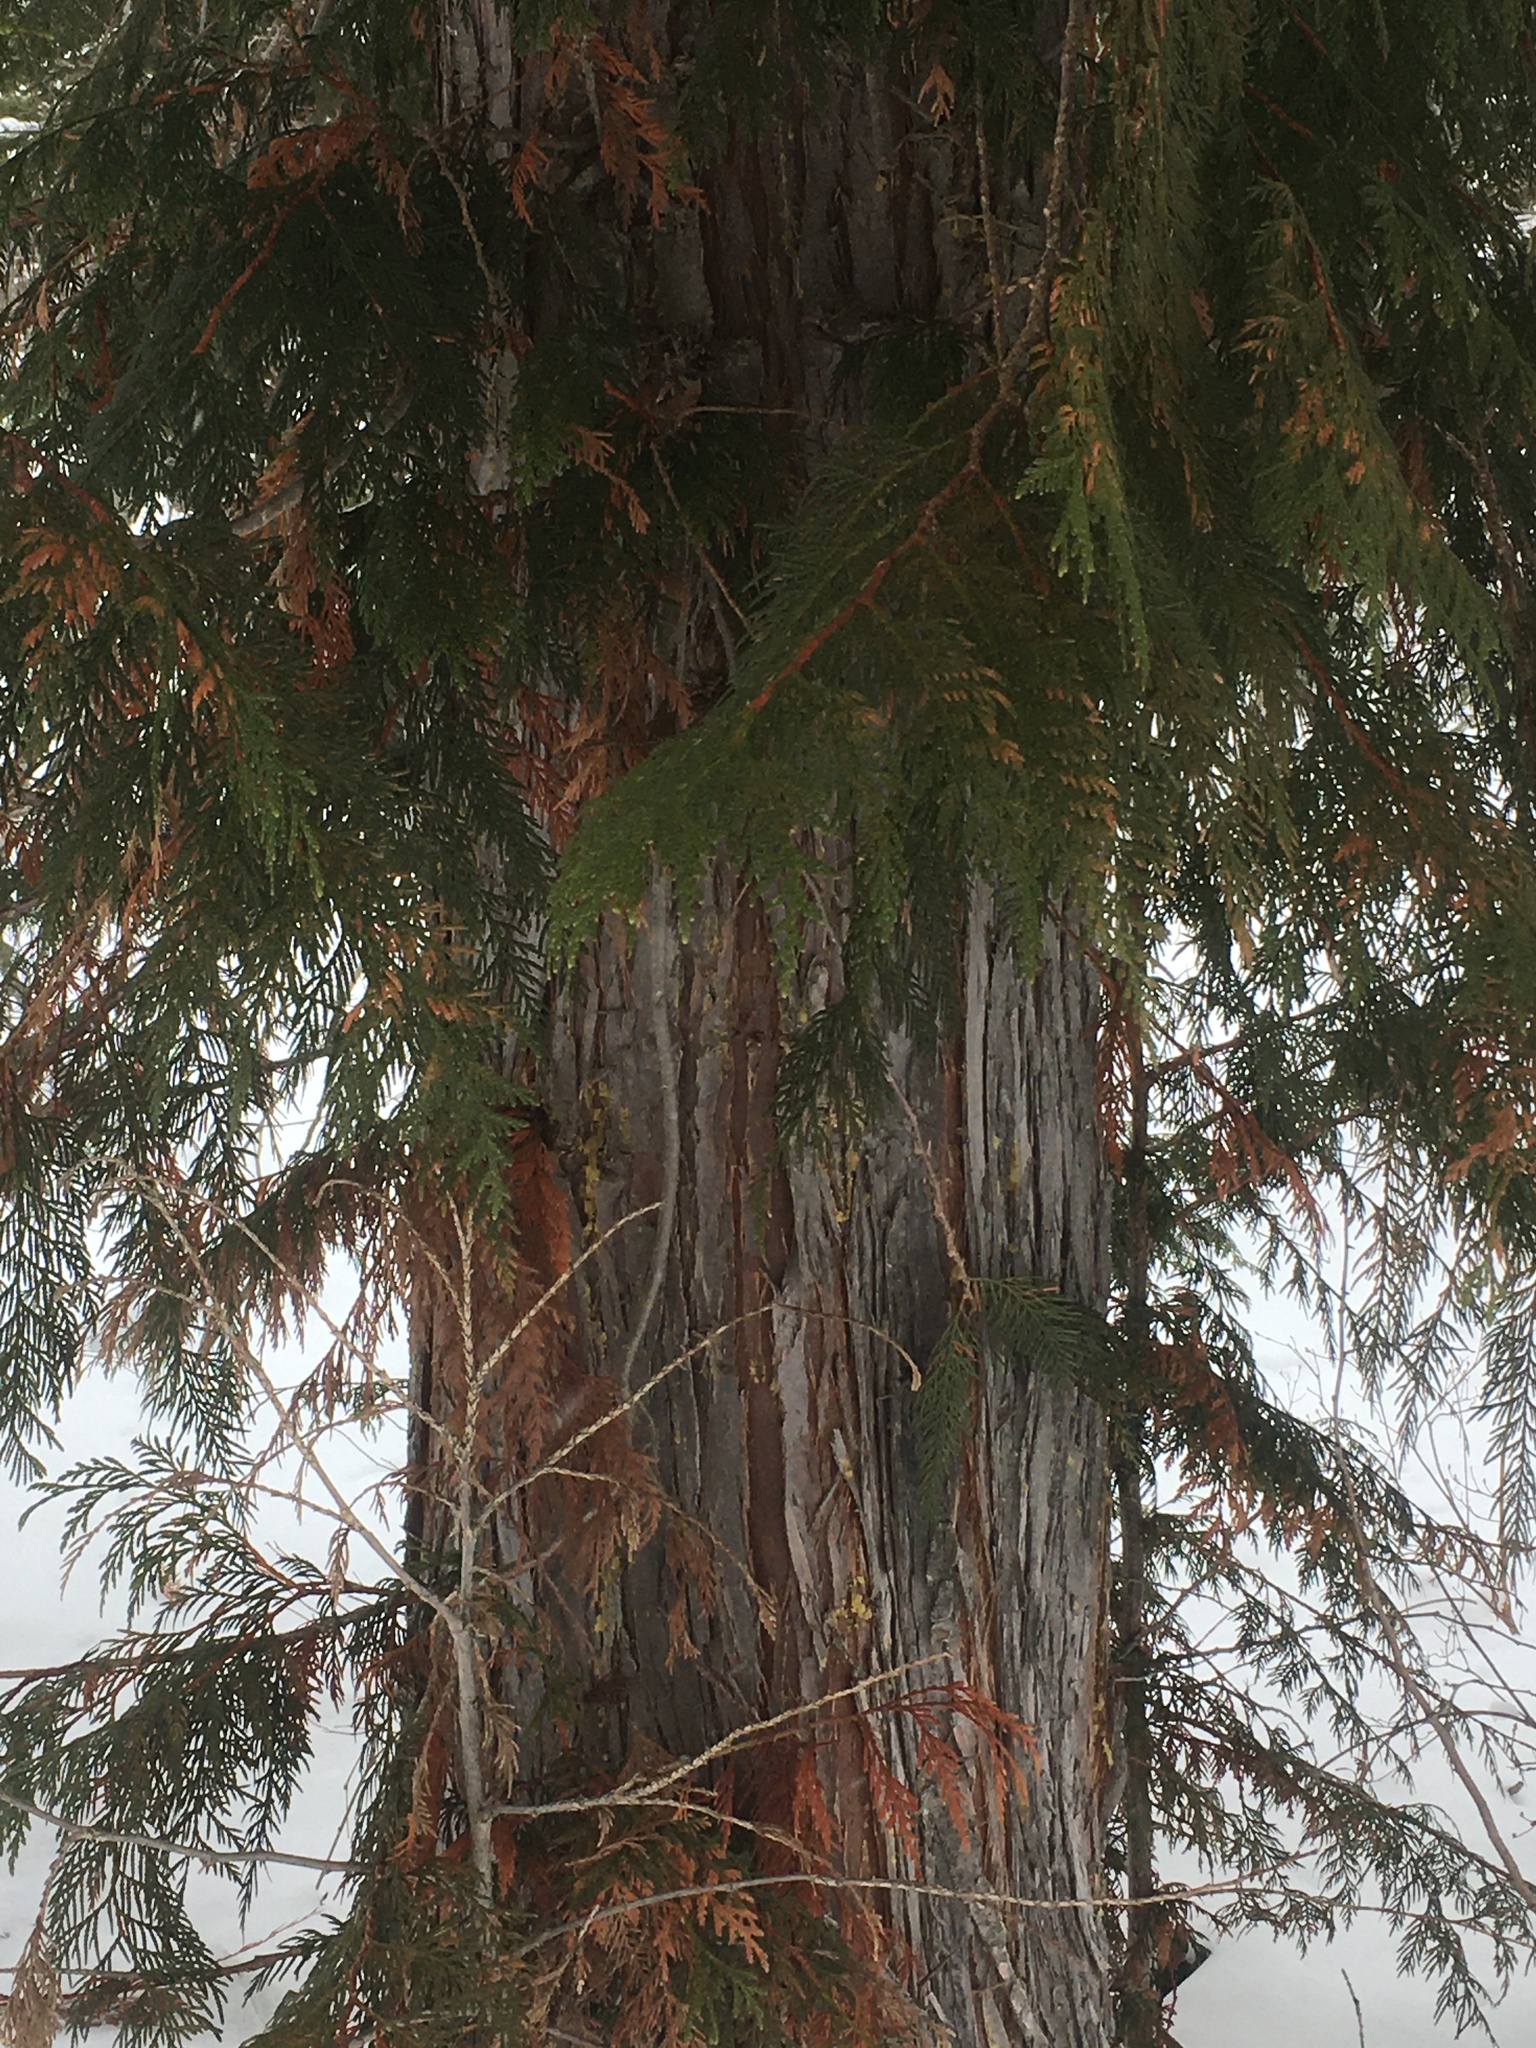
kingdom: Plantae
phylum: Tracheophyta
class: Pinopsida
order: Pinales
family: Cupressaceae
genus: Thuja
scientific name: Thuja plicata
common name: Western red-cedar
